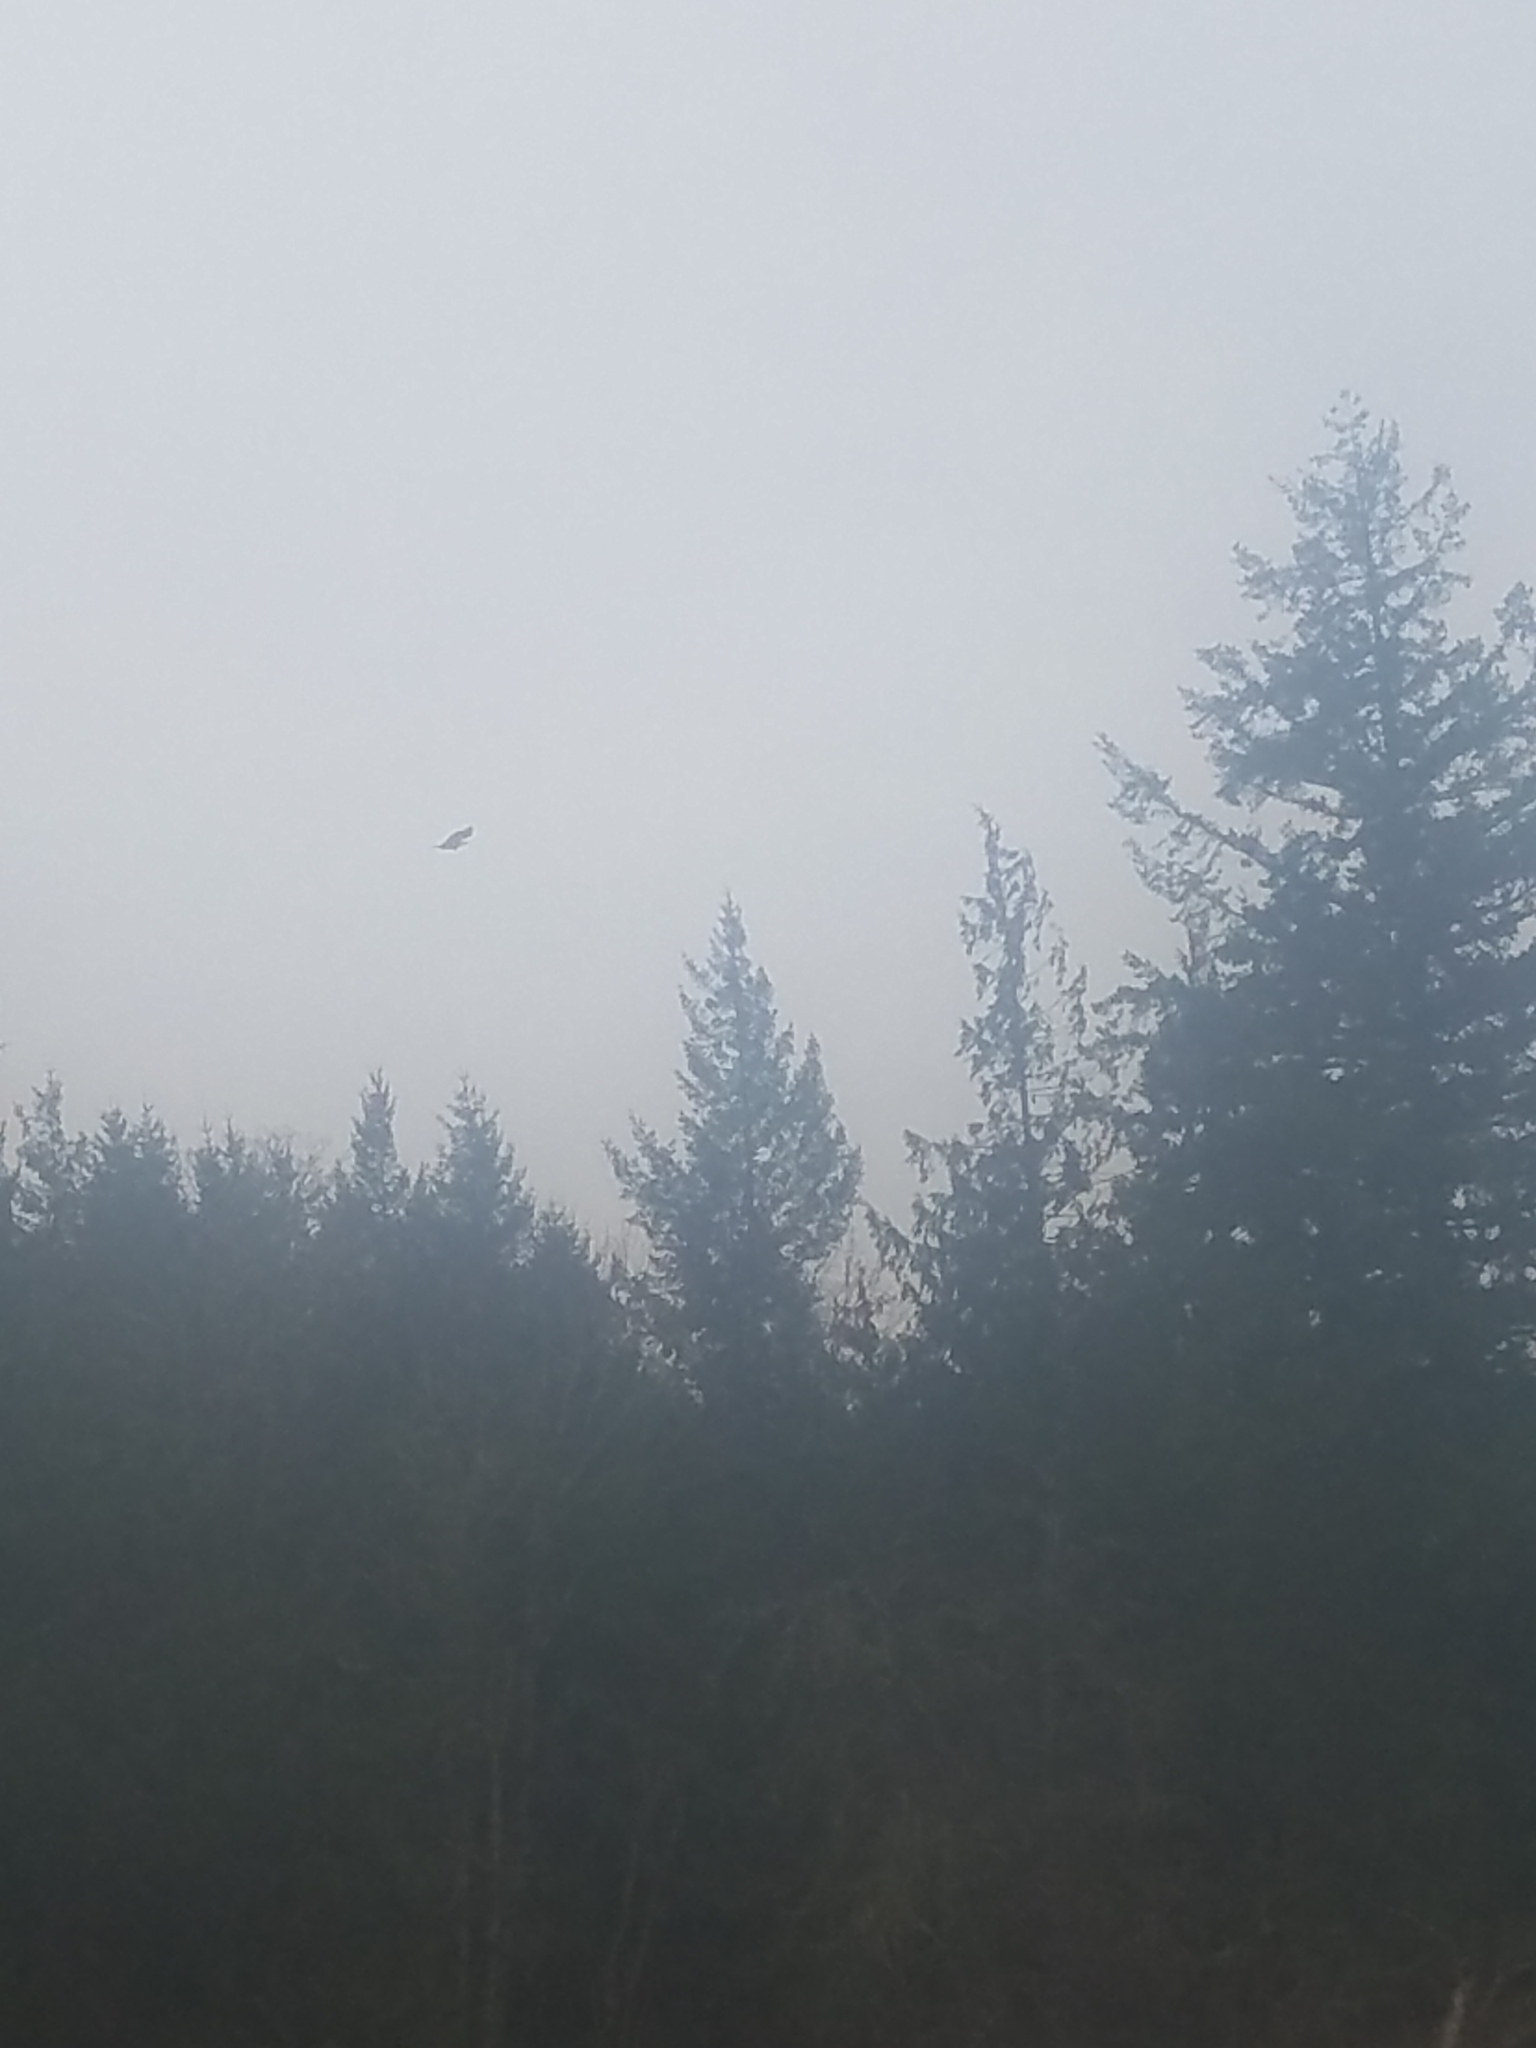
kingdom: Animalia
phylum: Chordata
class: Aves
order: Accipitriformes
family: Accipitridae
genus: Haliaeetus
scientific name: Haliaeetus leucocephalus
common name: Bald eagle
